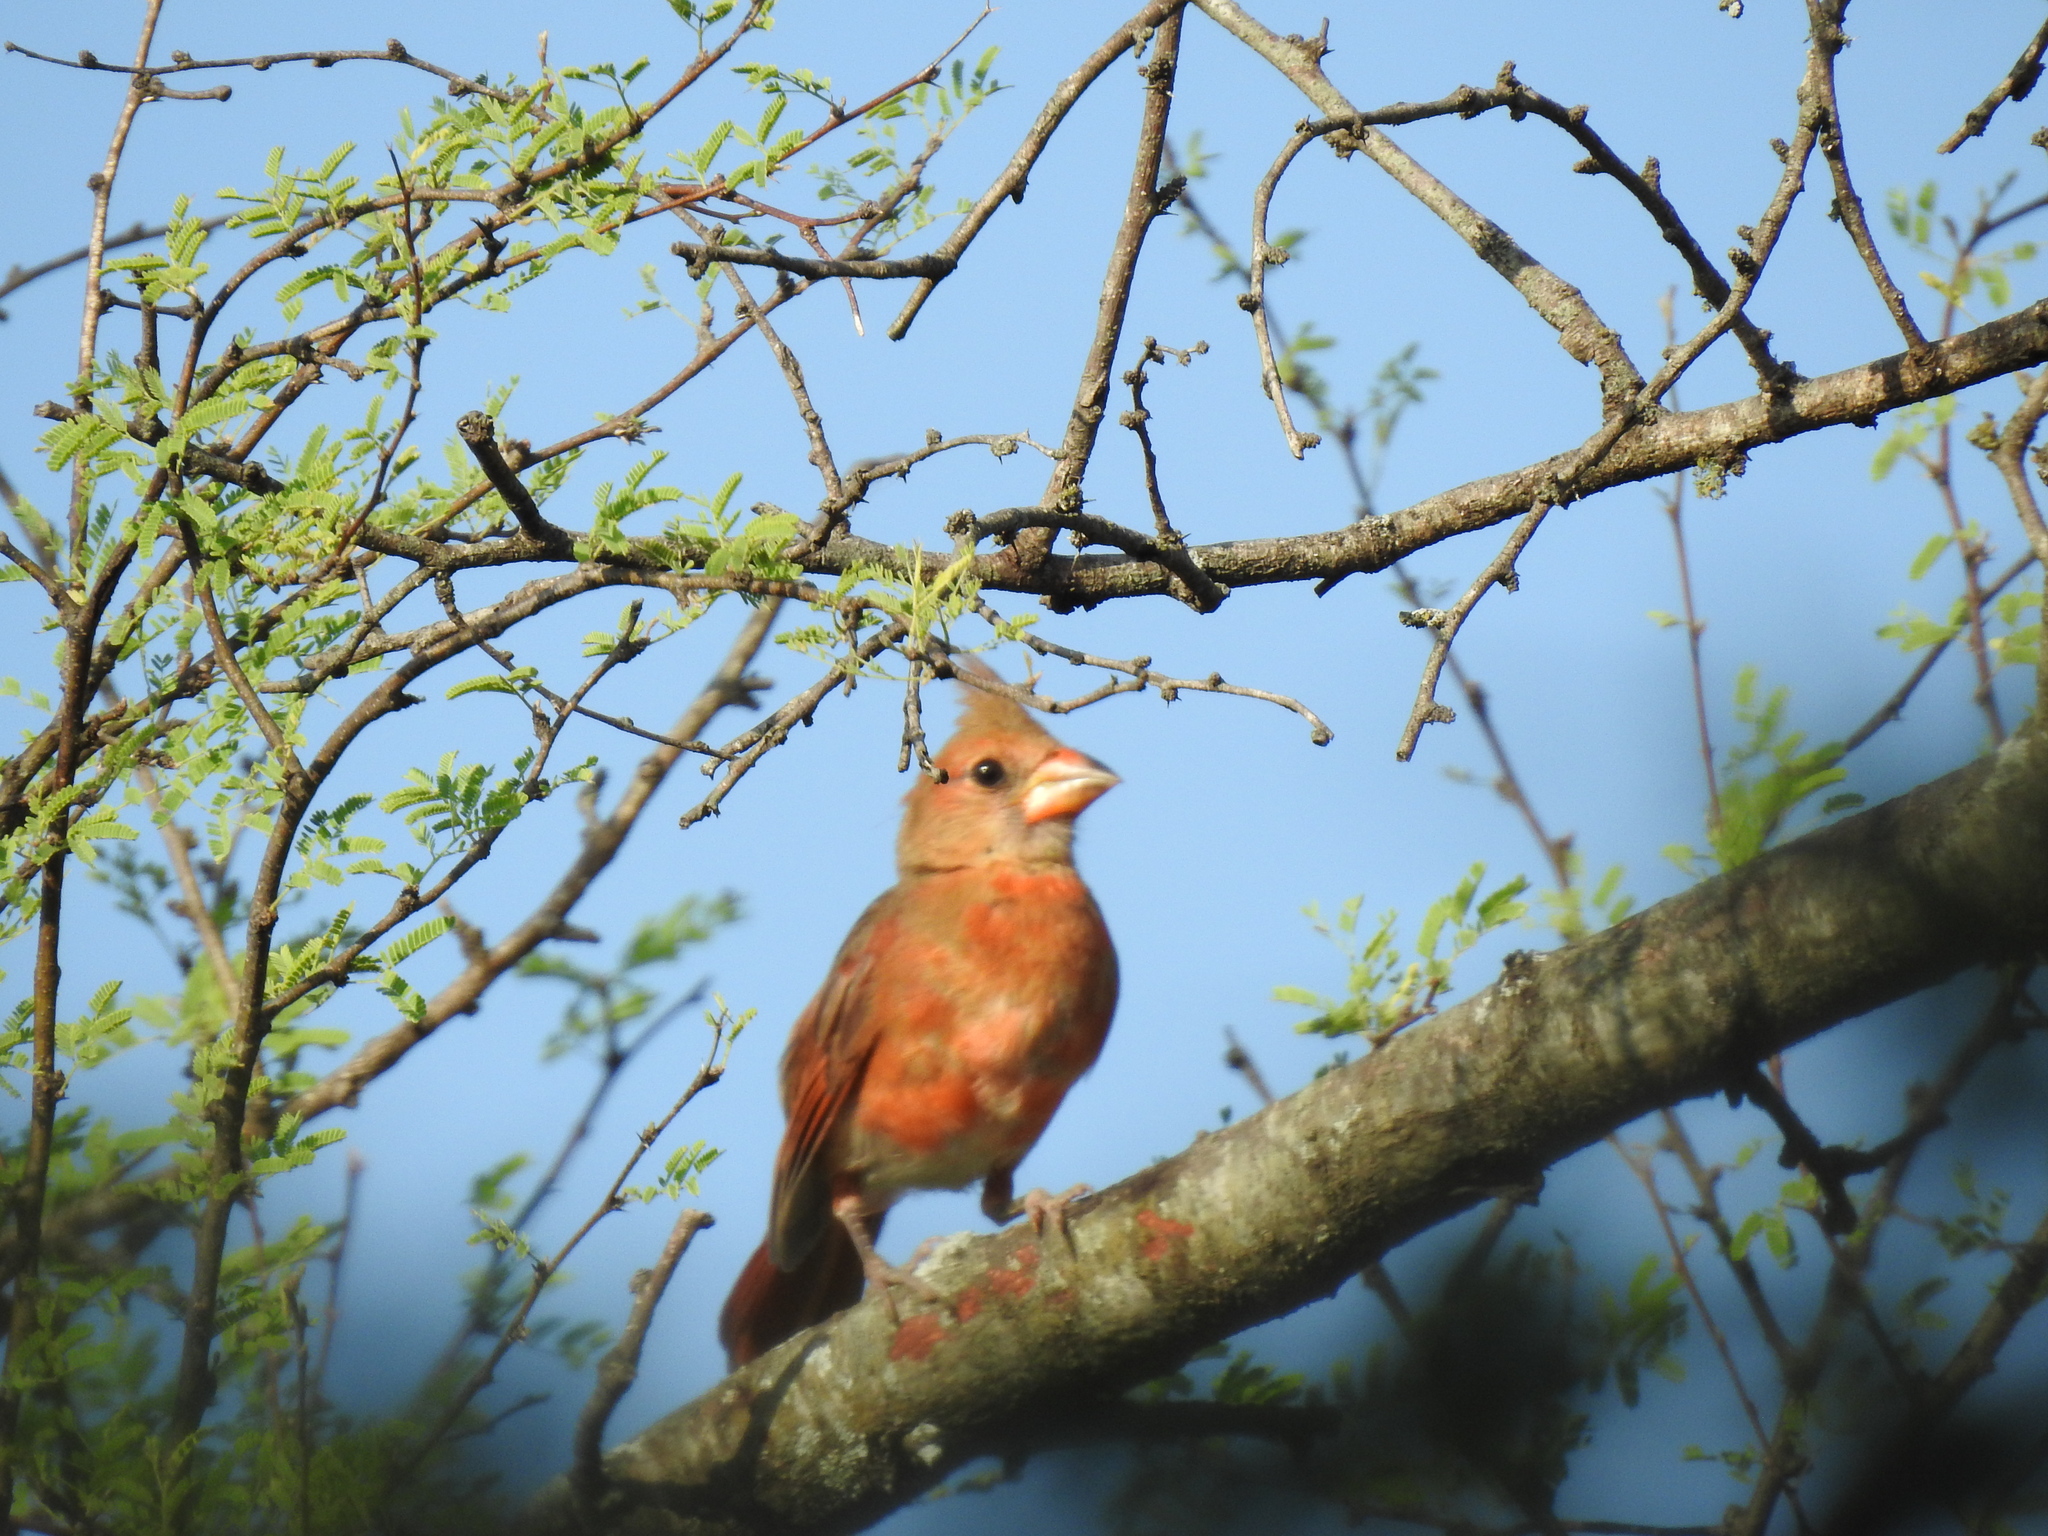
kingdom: Animalia
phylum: Chordata
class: Aves
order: Passeriformes
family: Cardinalidae
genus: Cardinalis
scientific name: Cardinalis cardinalis
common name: Northern cardinal
